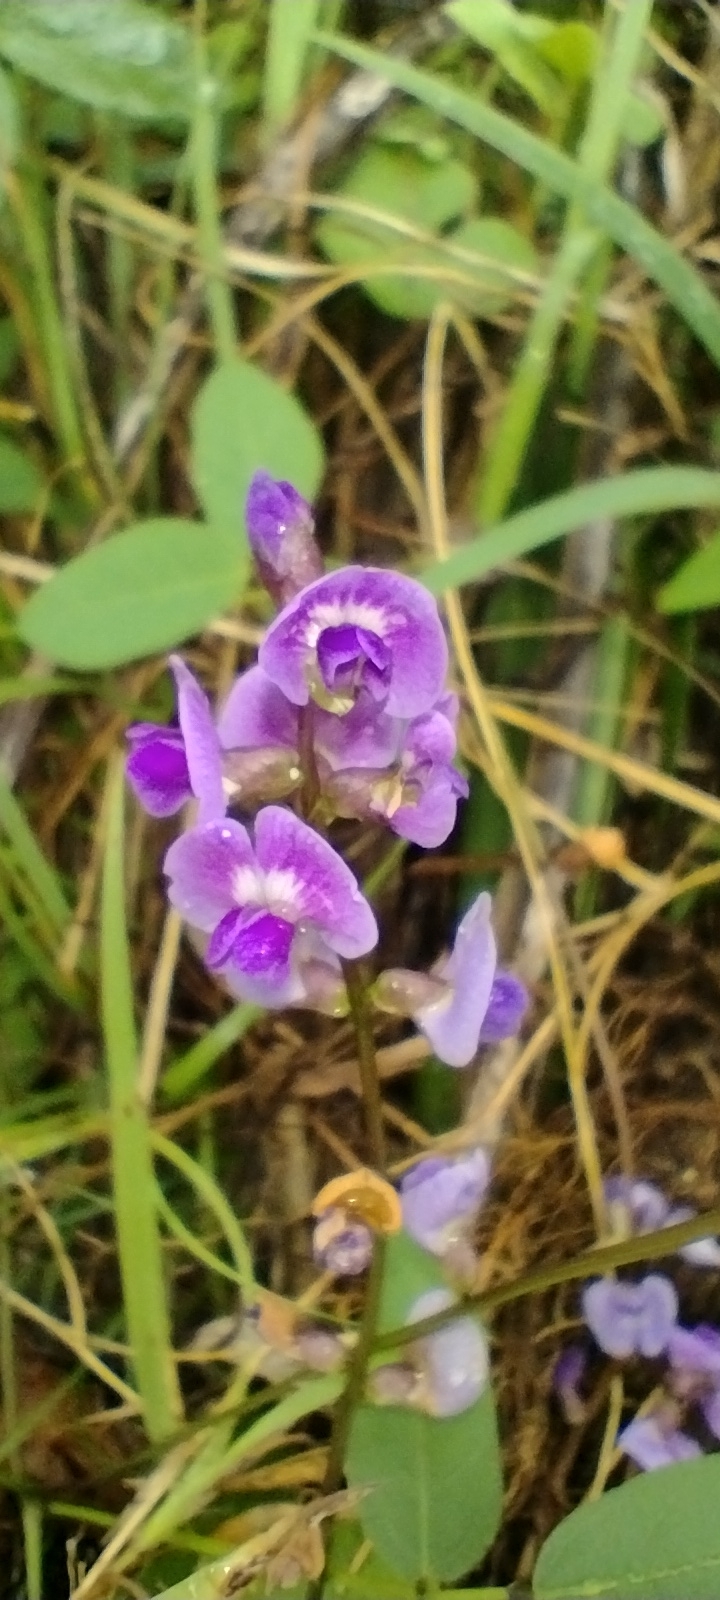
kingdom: Plantae
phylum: Tracheophyta
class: Magnoliopsida
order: Fabales
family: Fabaceae
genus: Glycine
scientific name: Glycine tabacina
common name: Pea glycine
